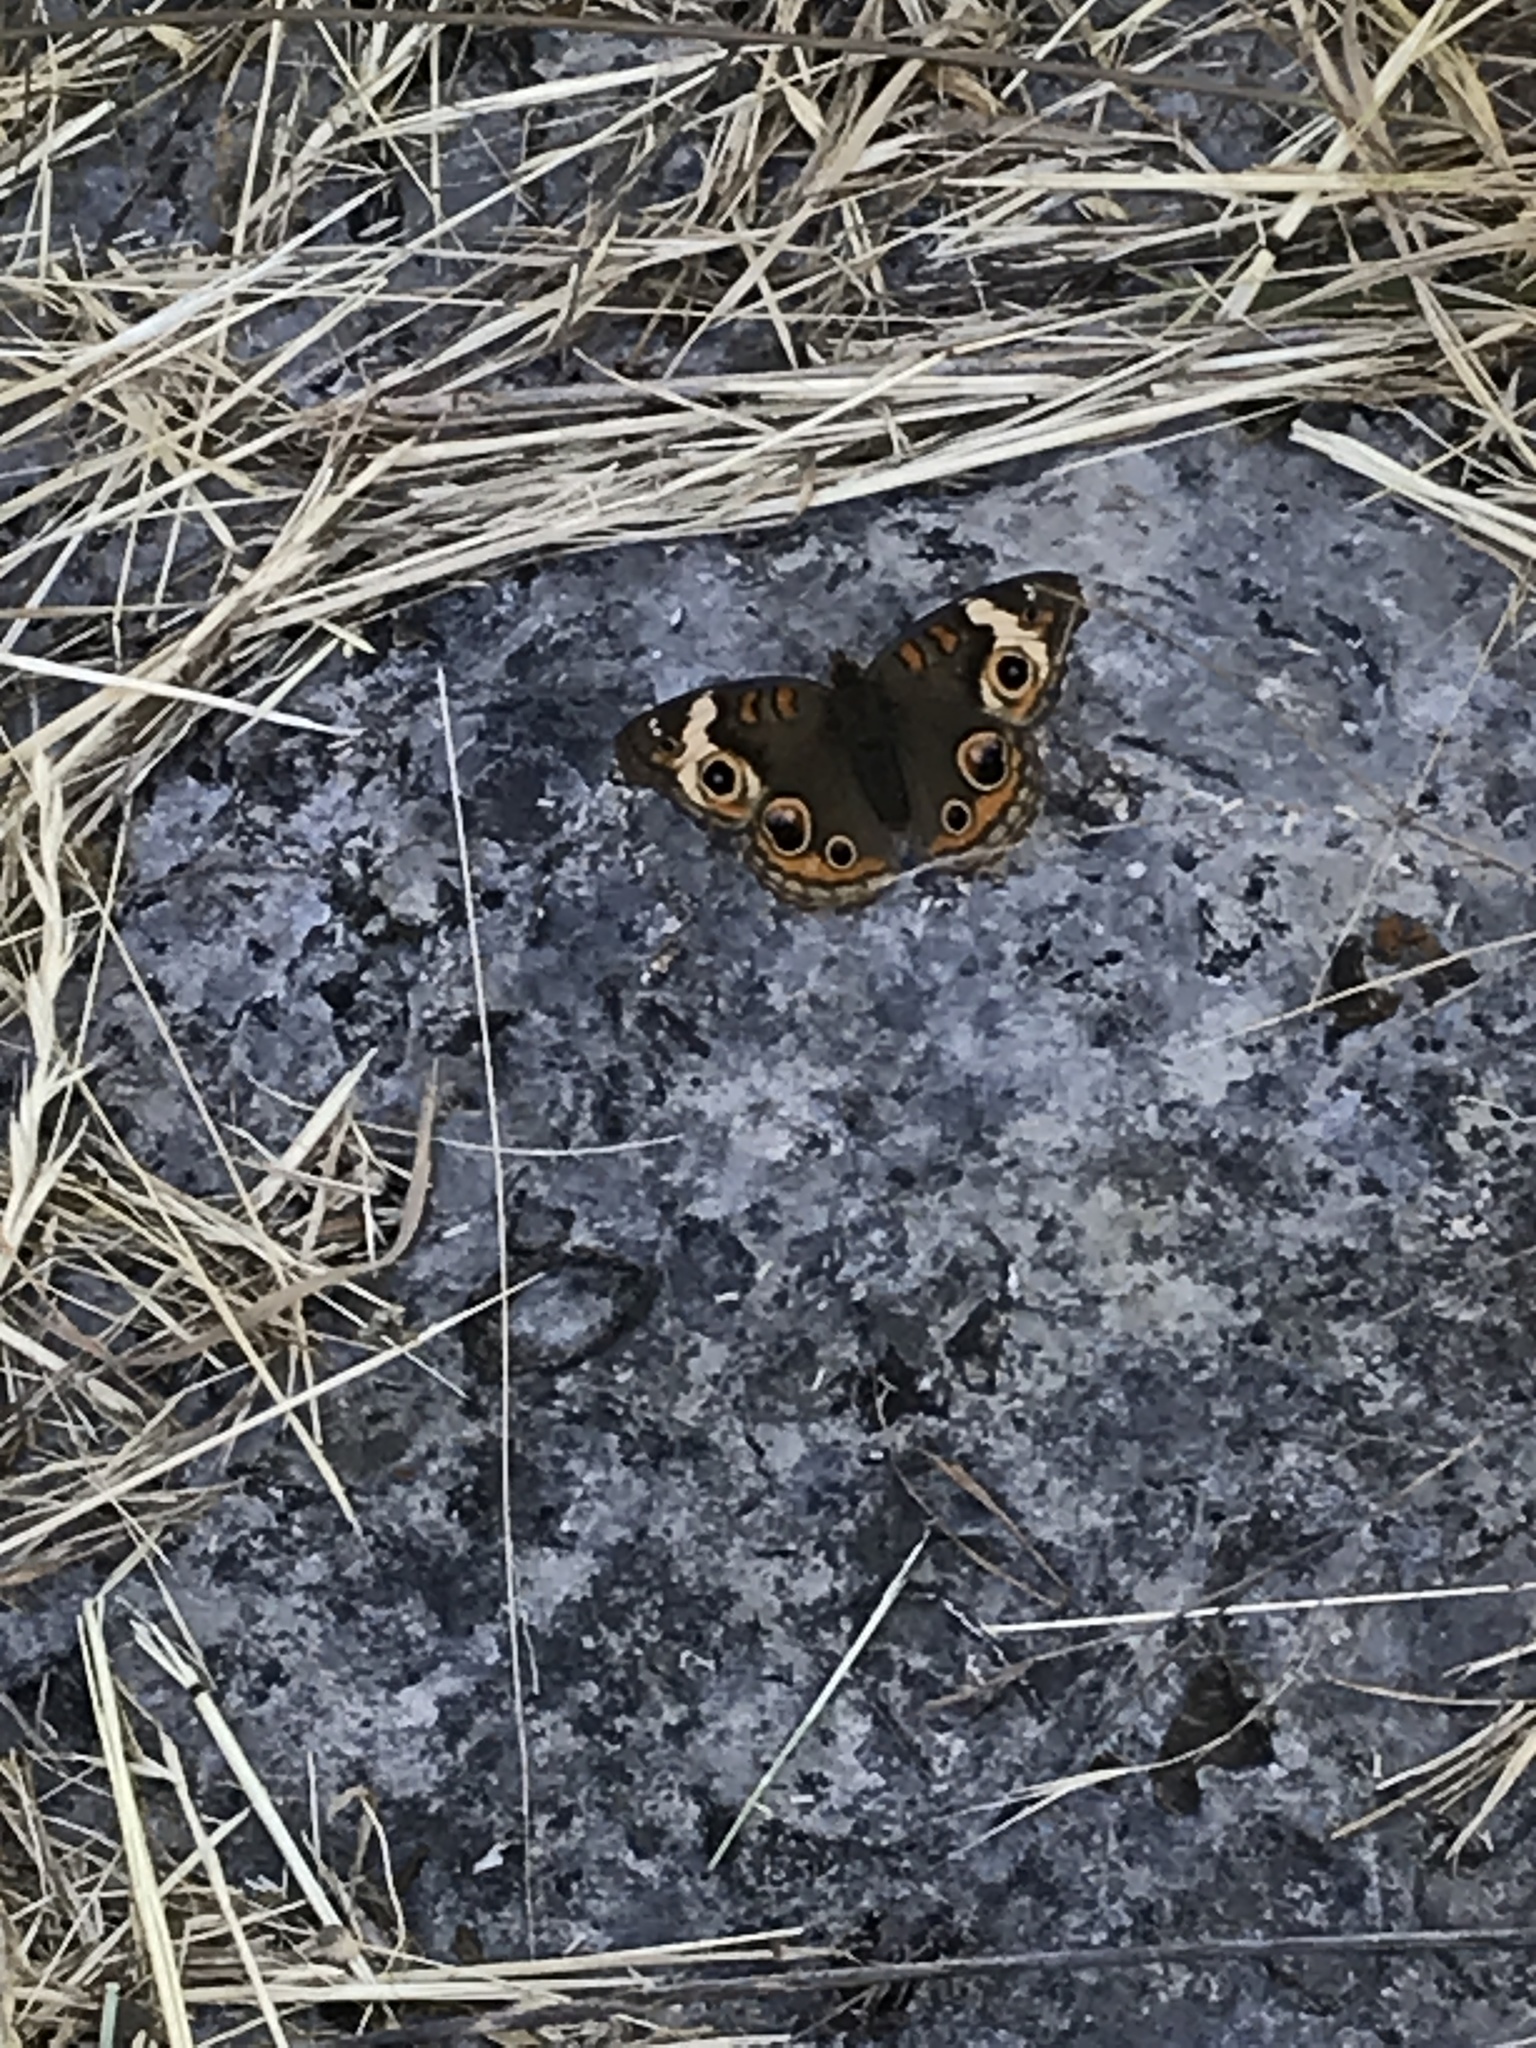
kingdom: Animalia
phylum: Arthropoda
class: Insecta
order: Lepidoptera
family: Nymphalidae
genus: Junonia
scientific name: Junonia coenia
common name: Common buckeye
